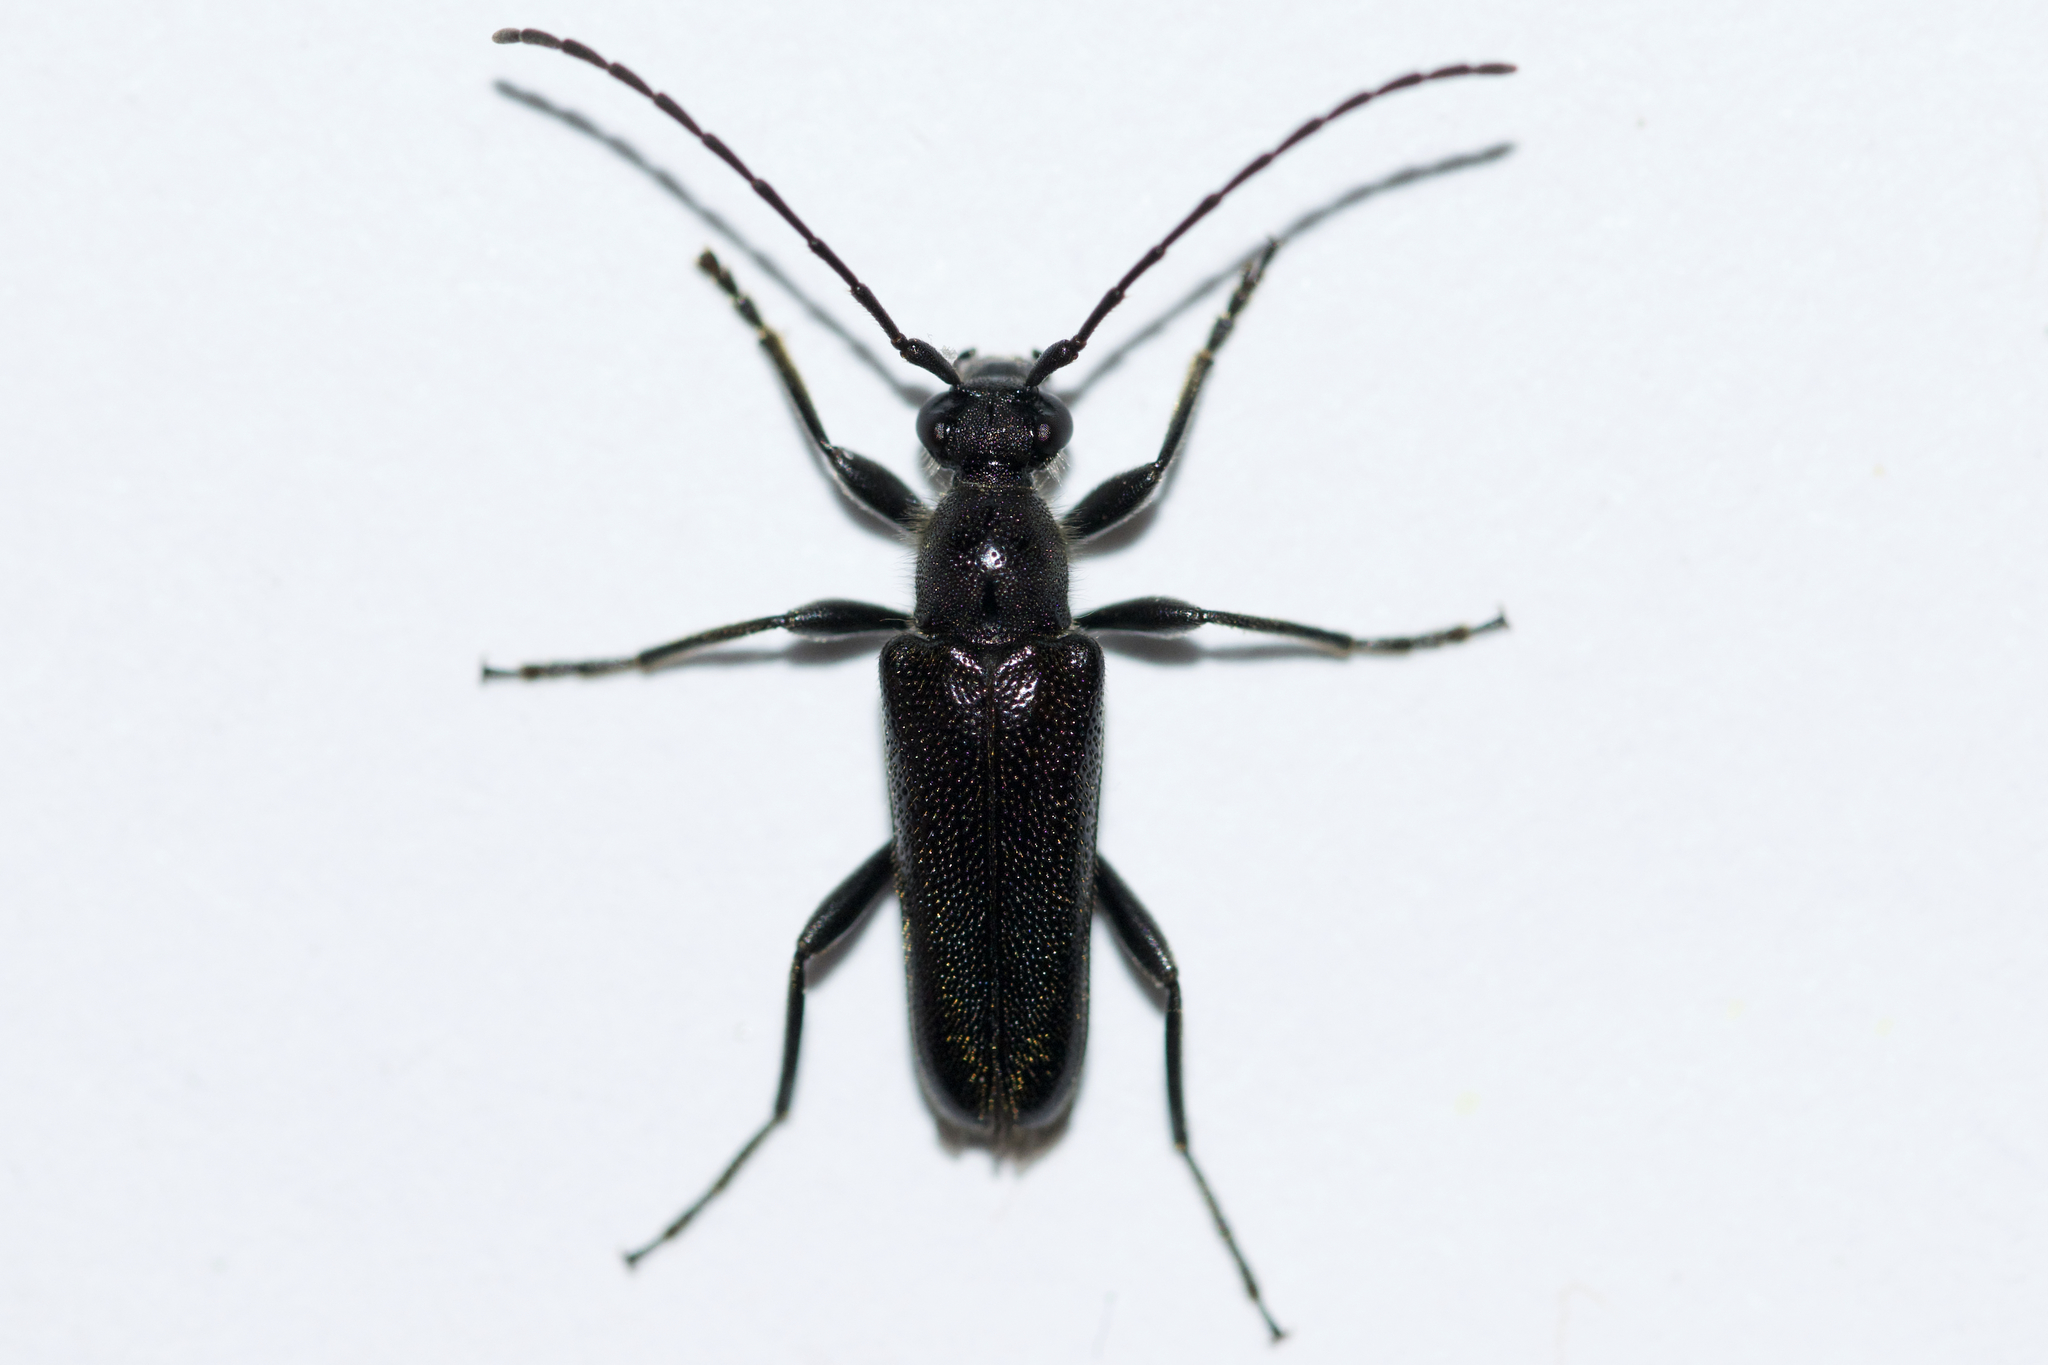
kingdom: Animalia
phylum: Arthropoda
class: Insecta
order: Coleoptera
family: Cerambycidae
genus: Anoplodera
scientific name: Anoplodera pubera
